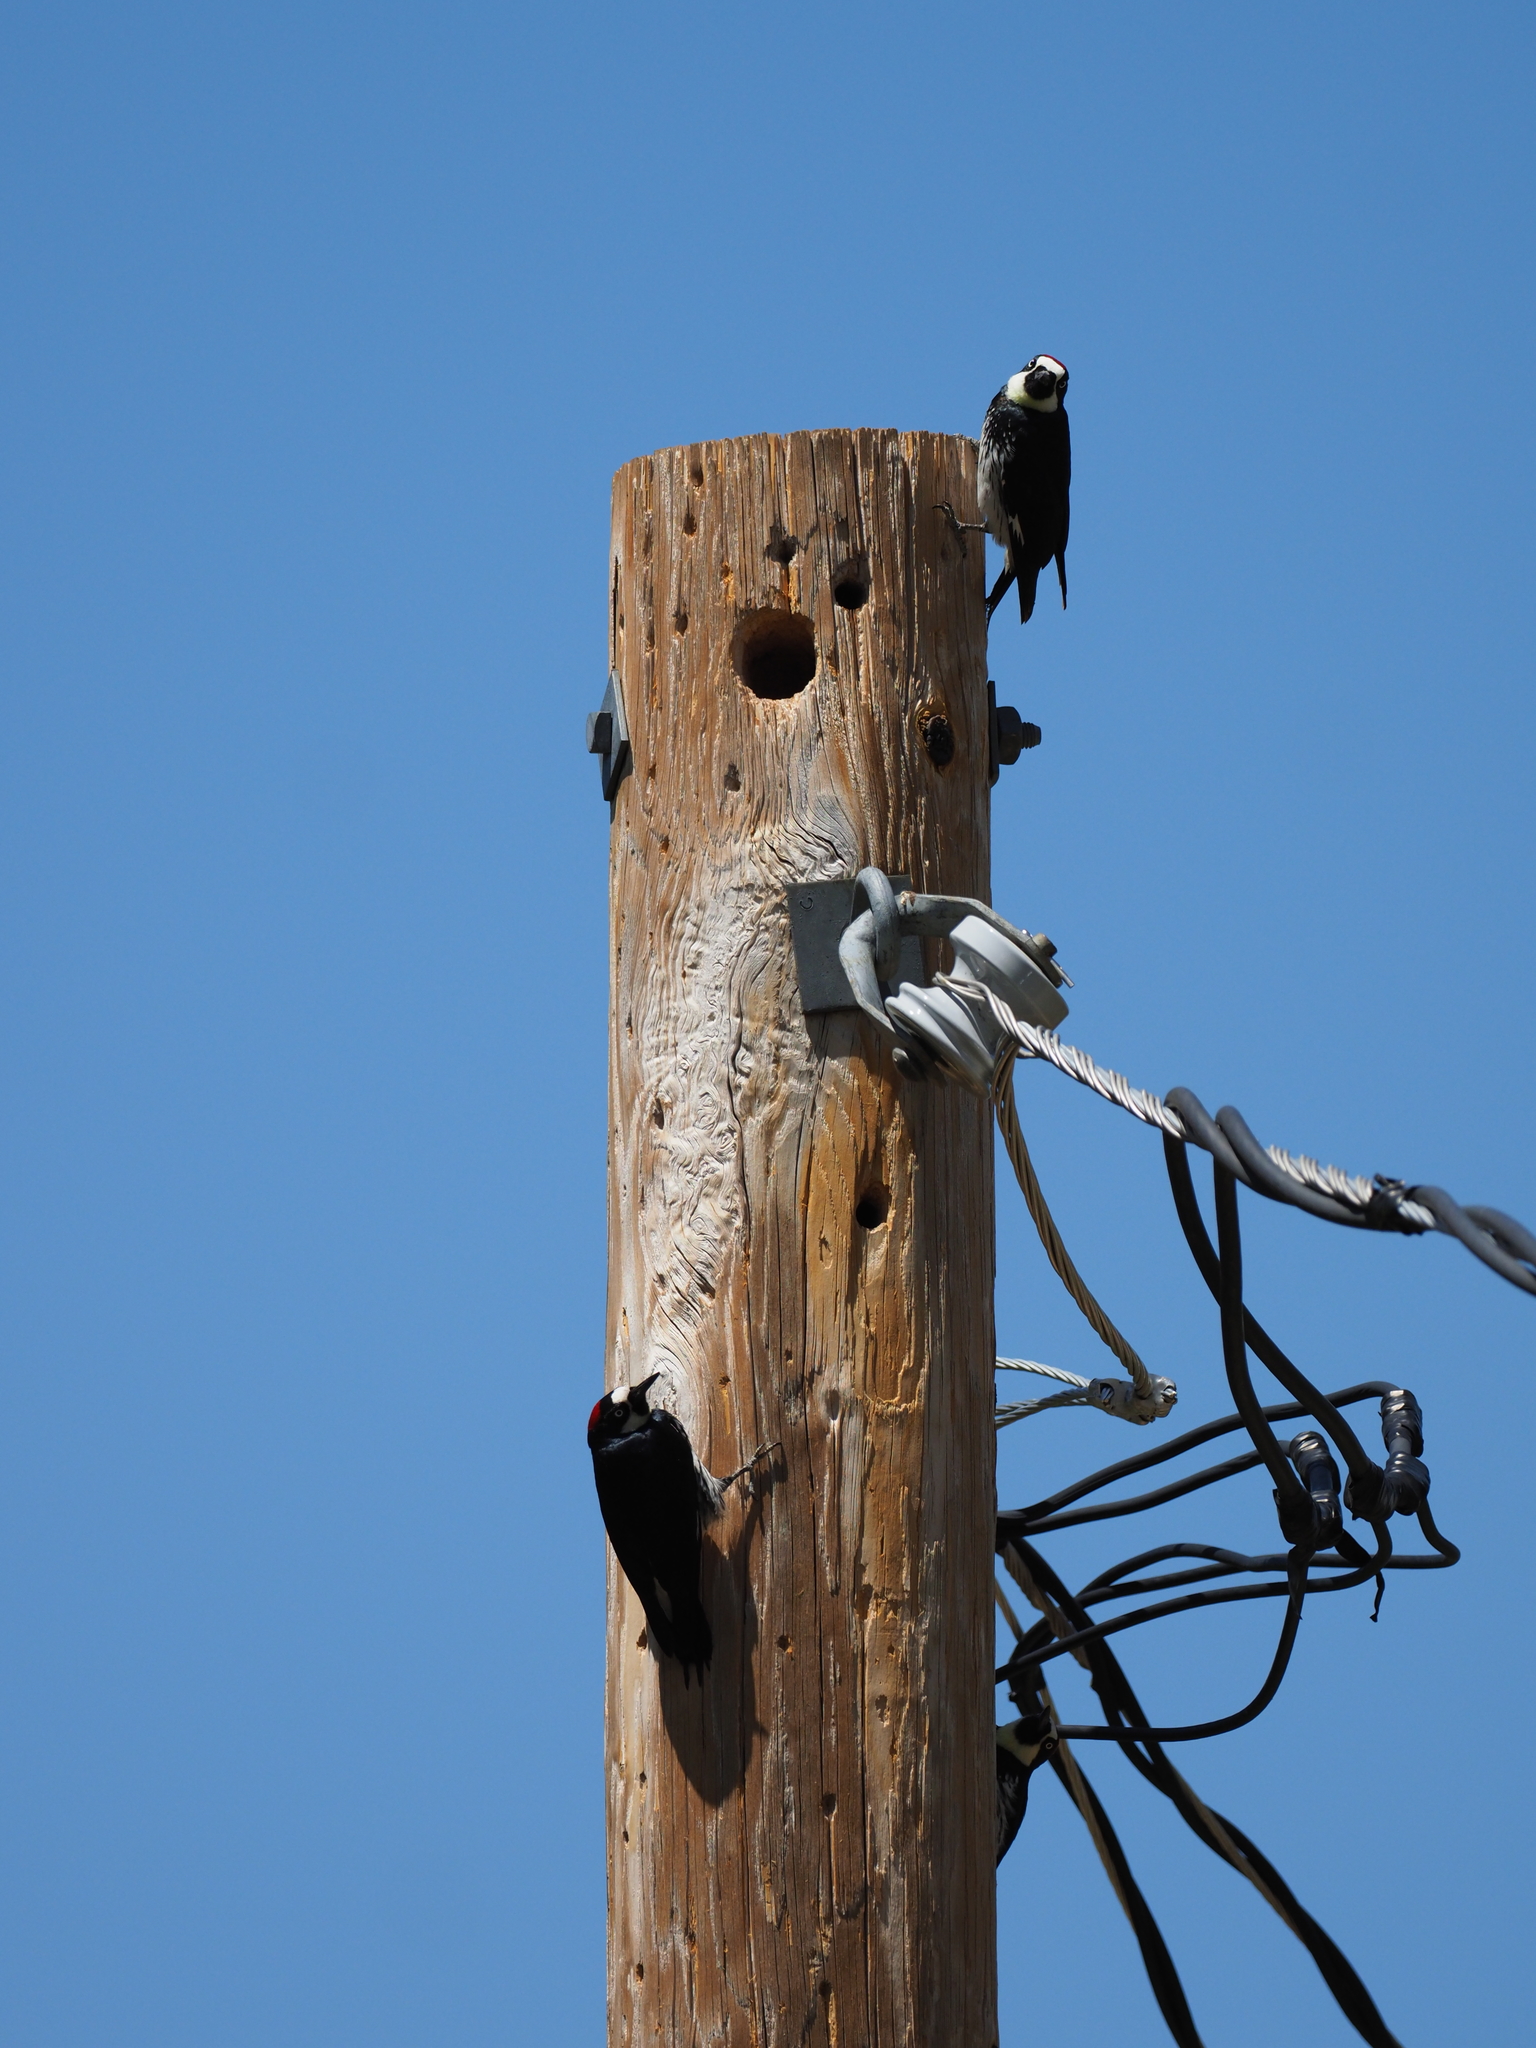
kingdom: Animalia
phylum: Chordata
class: Aves
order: Piciformes
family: Picidae
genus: Melanerpes
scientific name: Melanerpes formicivorus
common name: Acorn woodpecker
